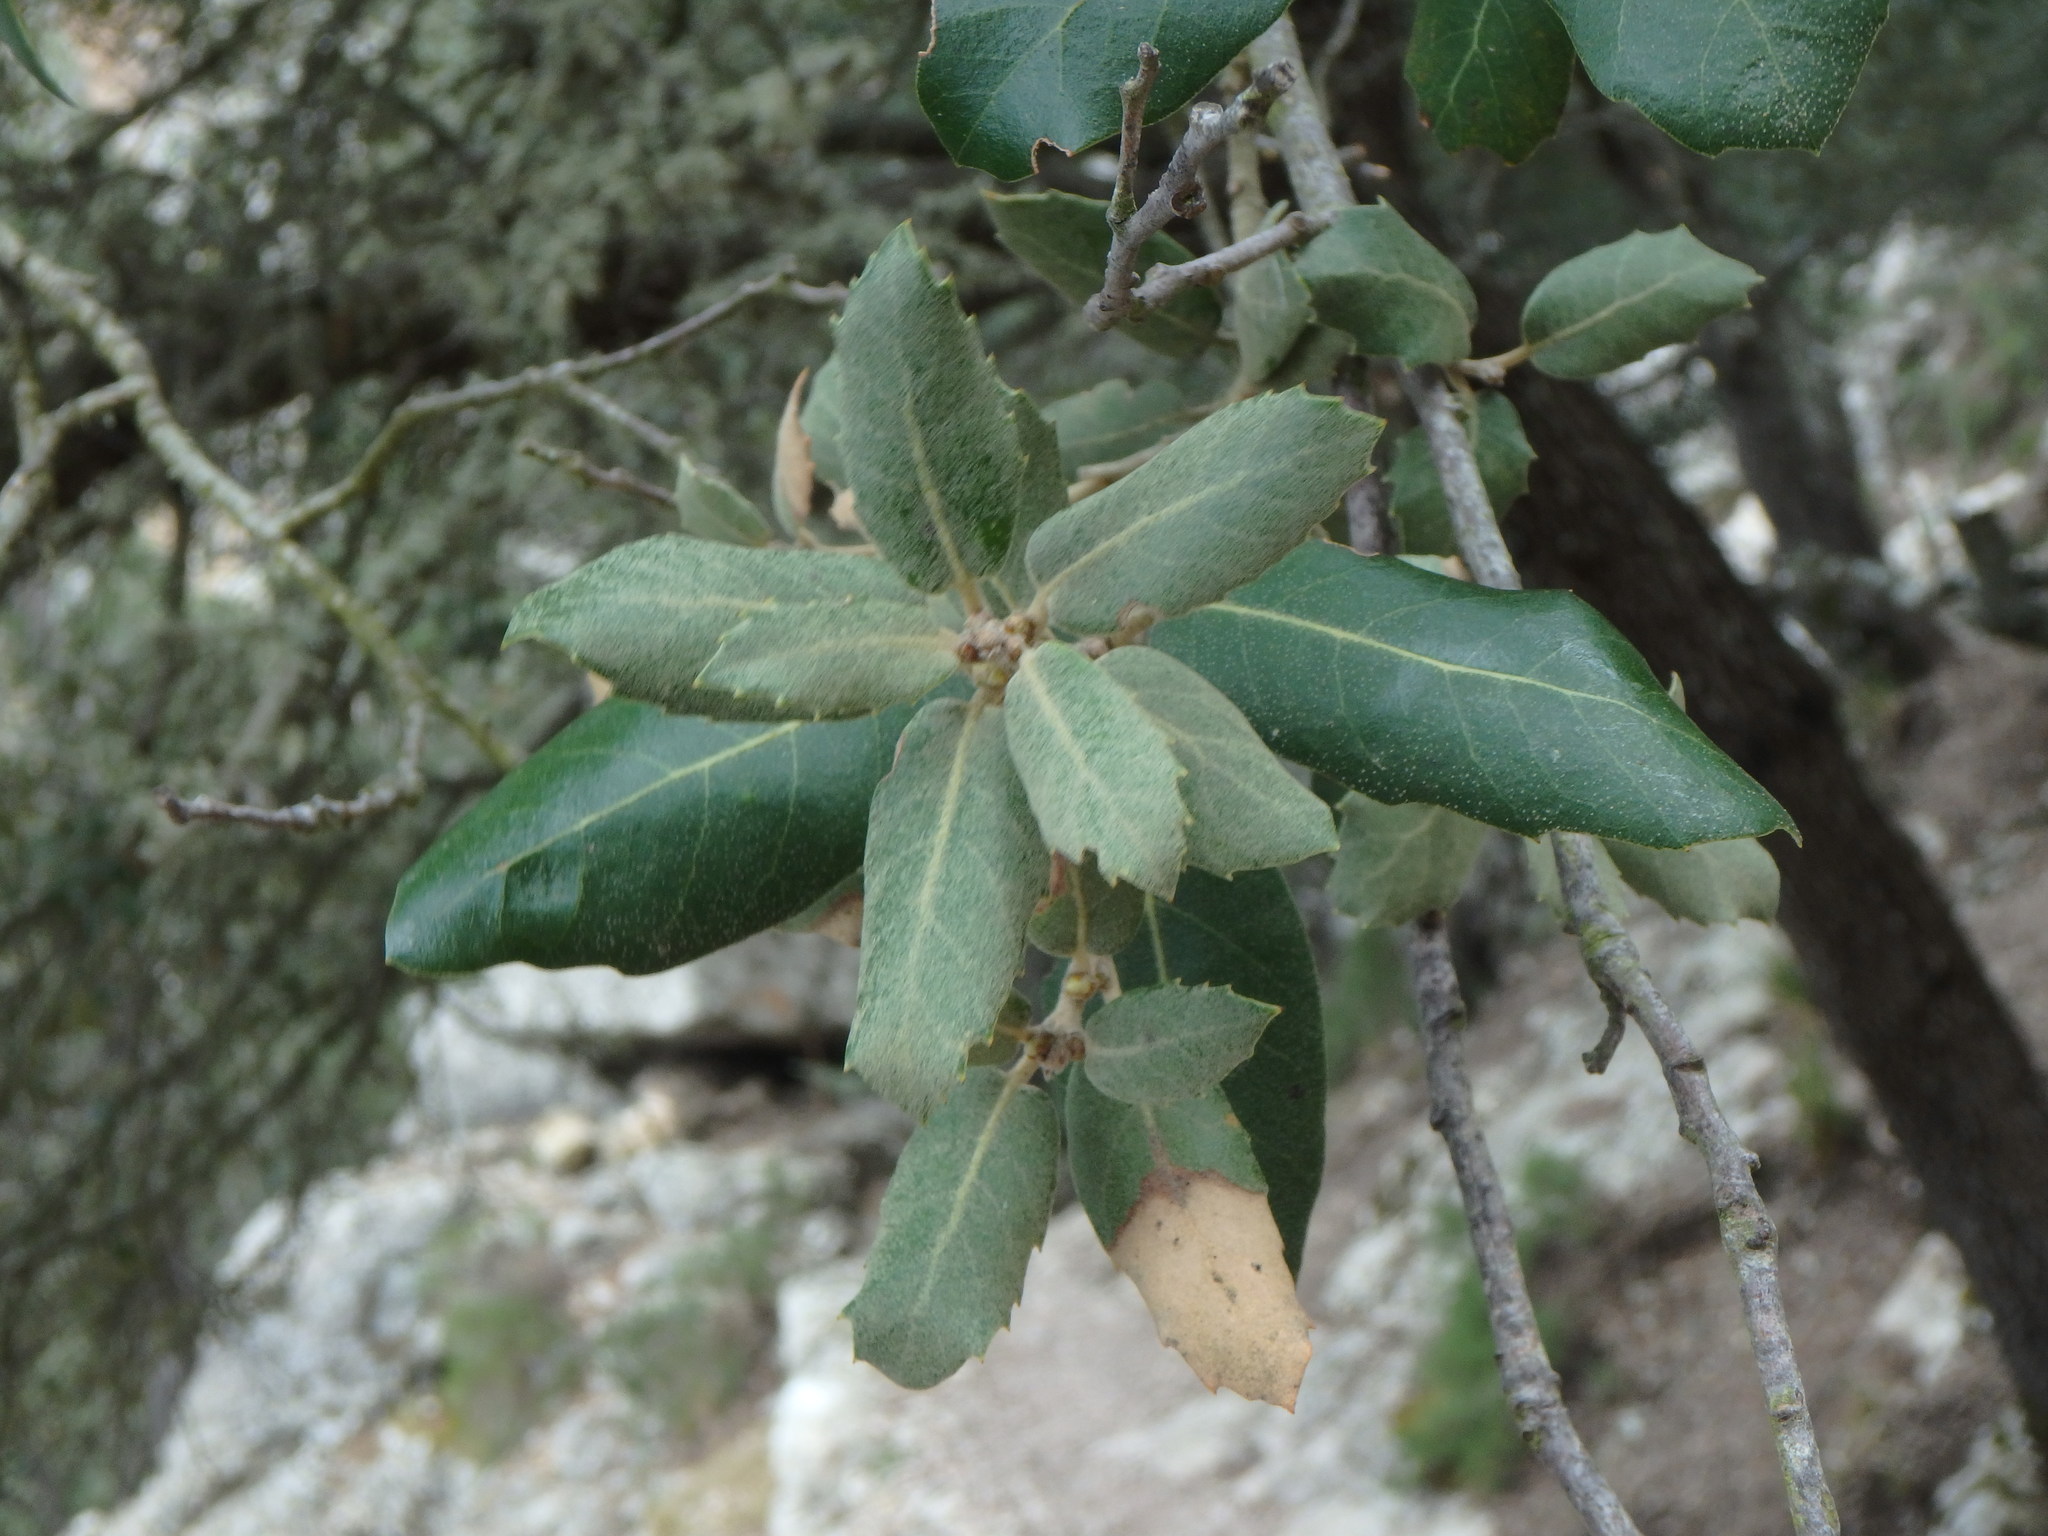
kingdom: Plantae
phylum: Tracheophyta
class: Magnoliopsida
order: Fagales
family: Fagaceae
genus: Quercus
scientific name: Quercus ilex
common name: Evergreen oak
